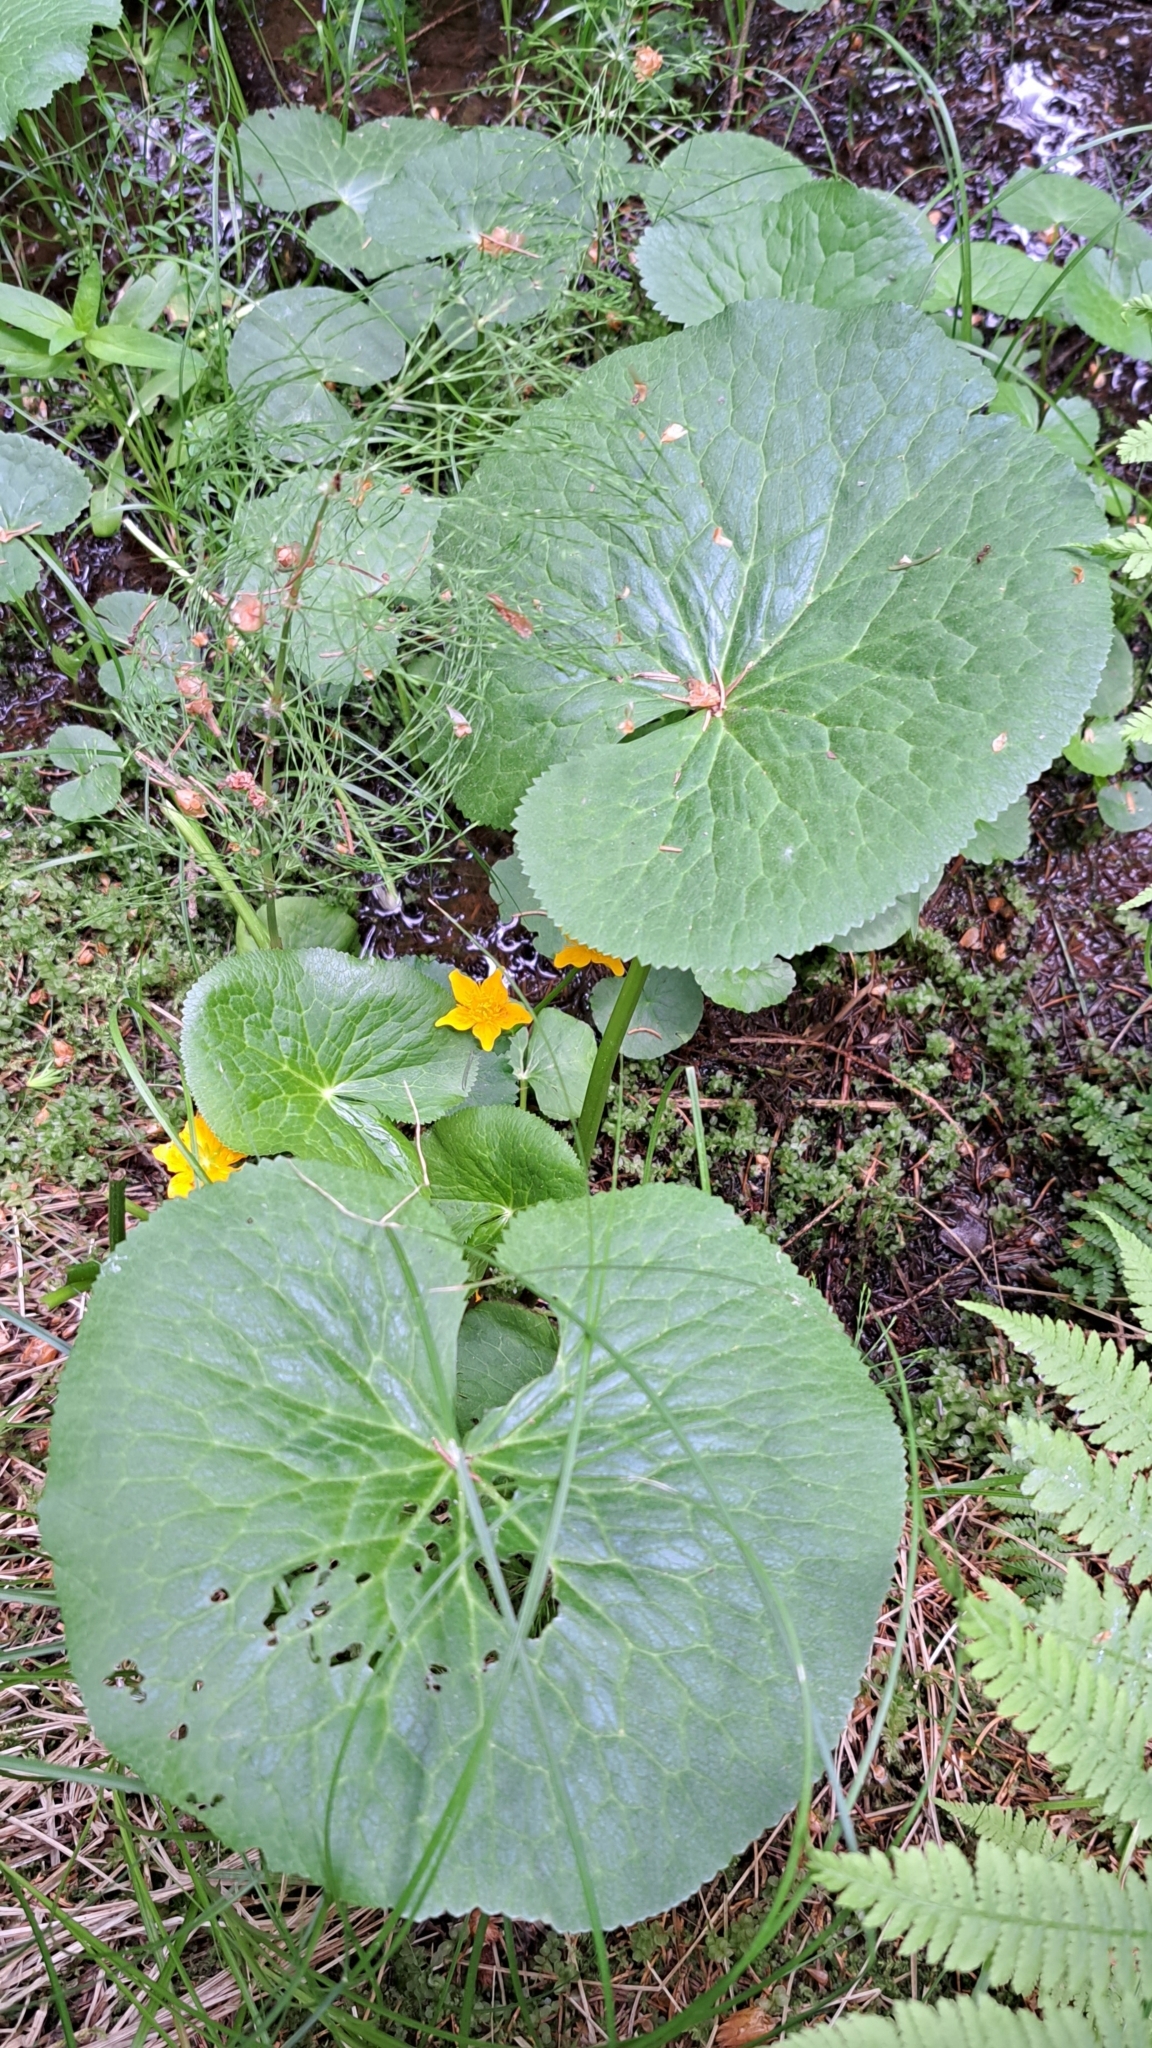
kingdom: Plantae
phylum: Tracheophyta
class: Magnoliopsida
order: Ranunculales
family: Ranunculaceae
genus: Caltha
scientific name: Caltha palustris
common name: Marsh marigold
